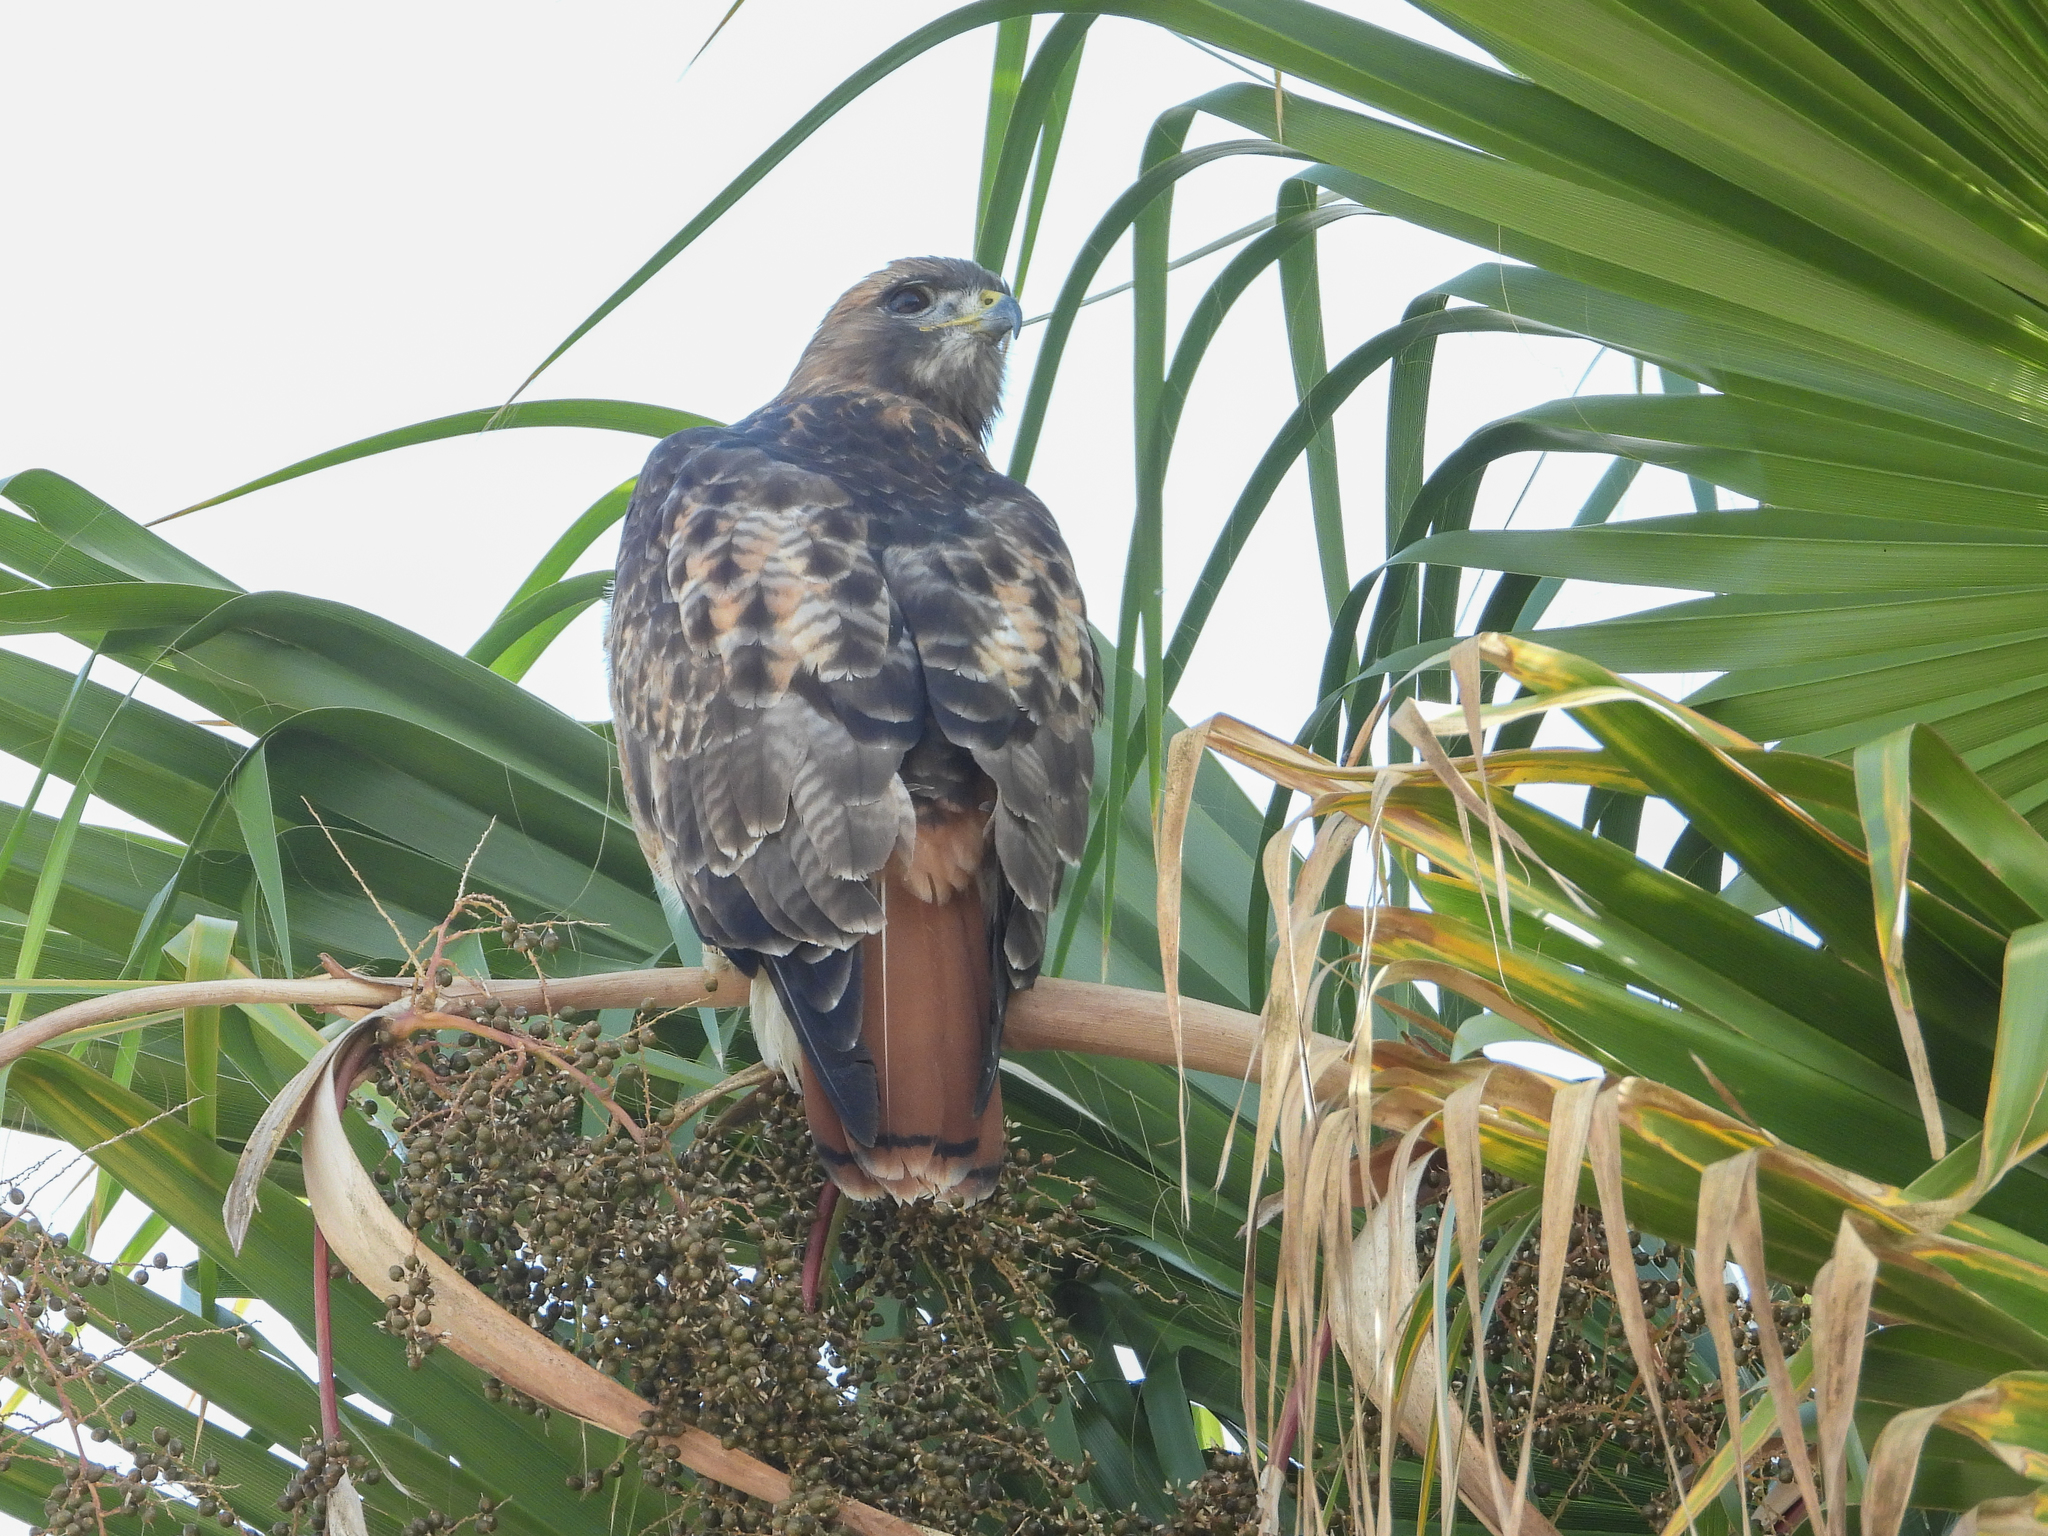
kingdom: Animalia
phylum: Chordata
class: Aves
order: Accipitriformes
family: Accipitridae
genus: Buteo
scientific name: Buteo jamaicensis
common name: Red-tailed hawk
